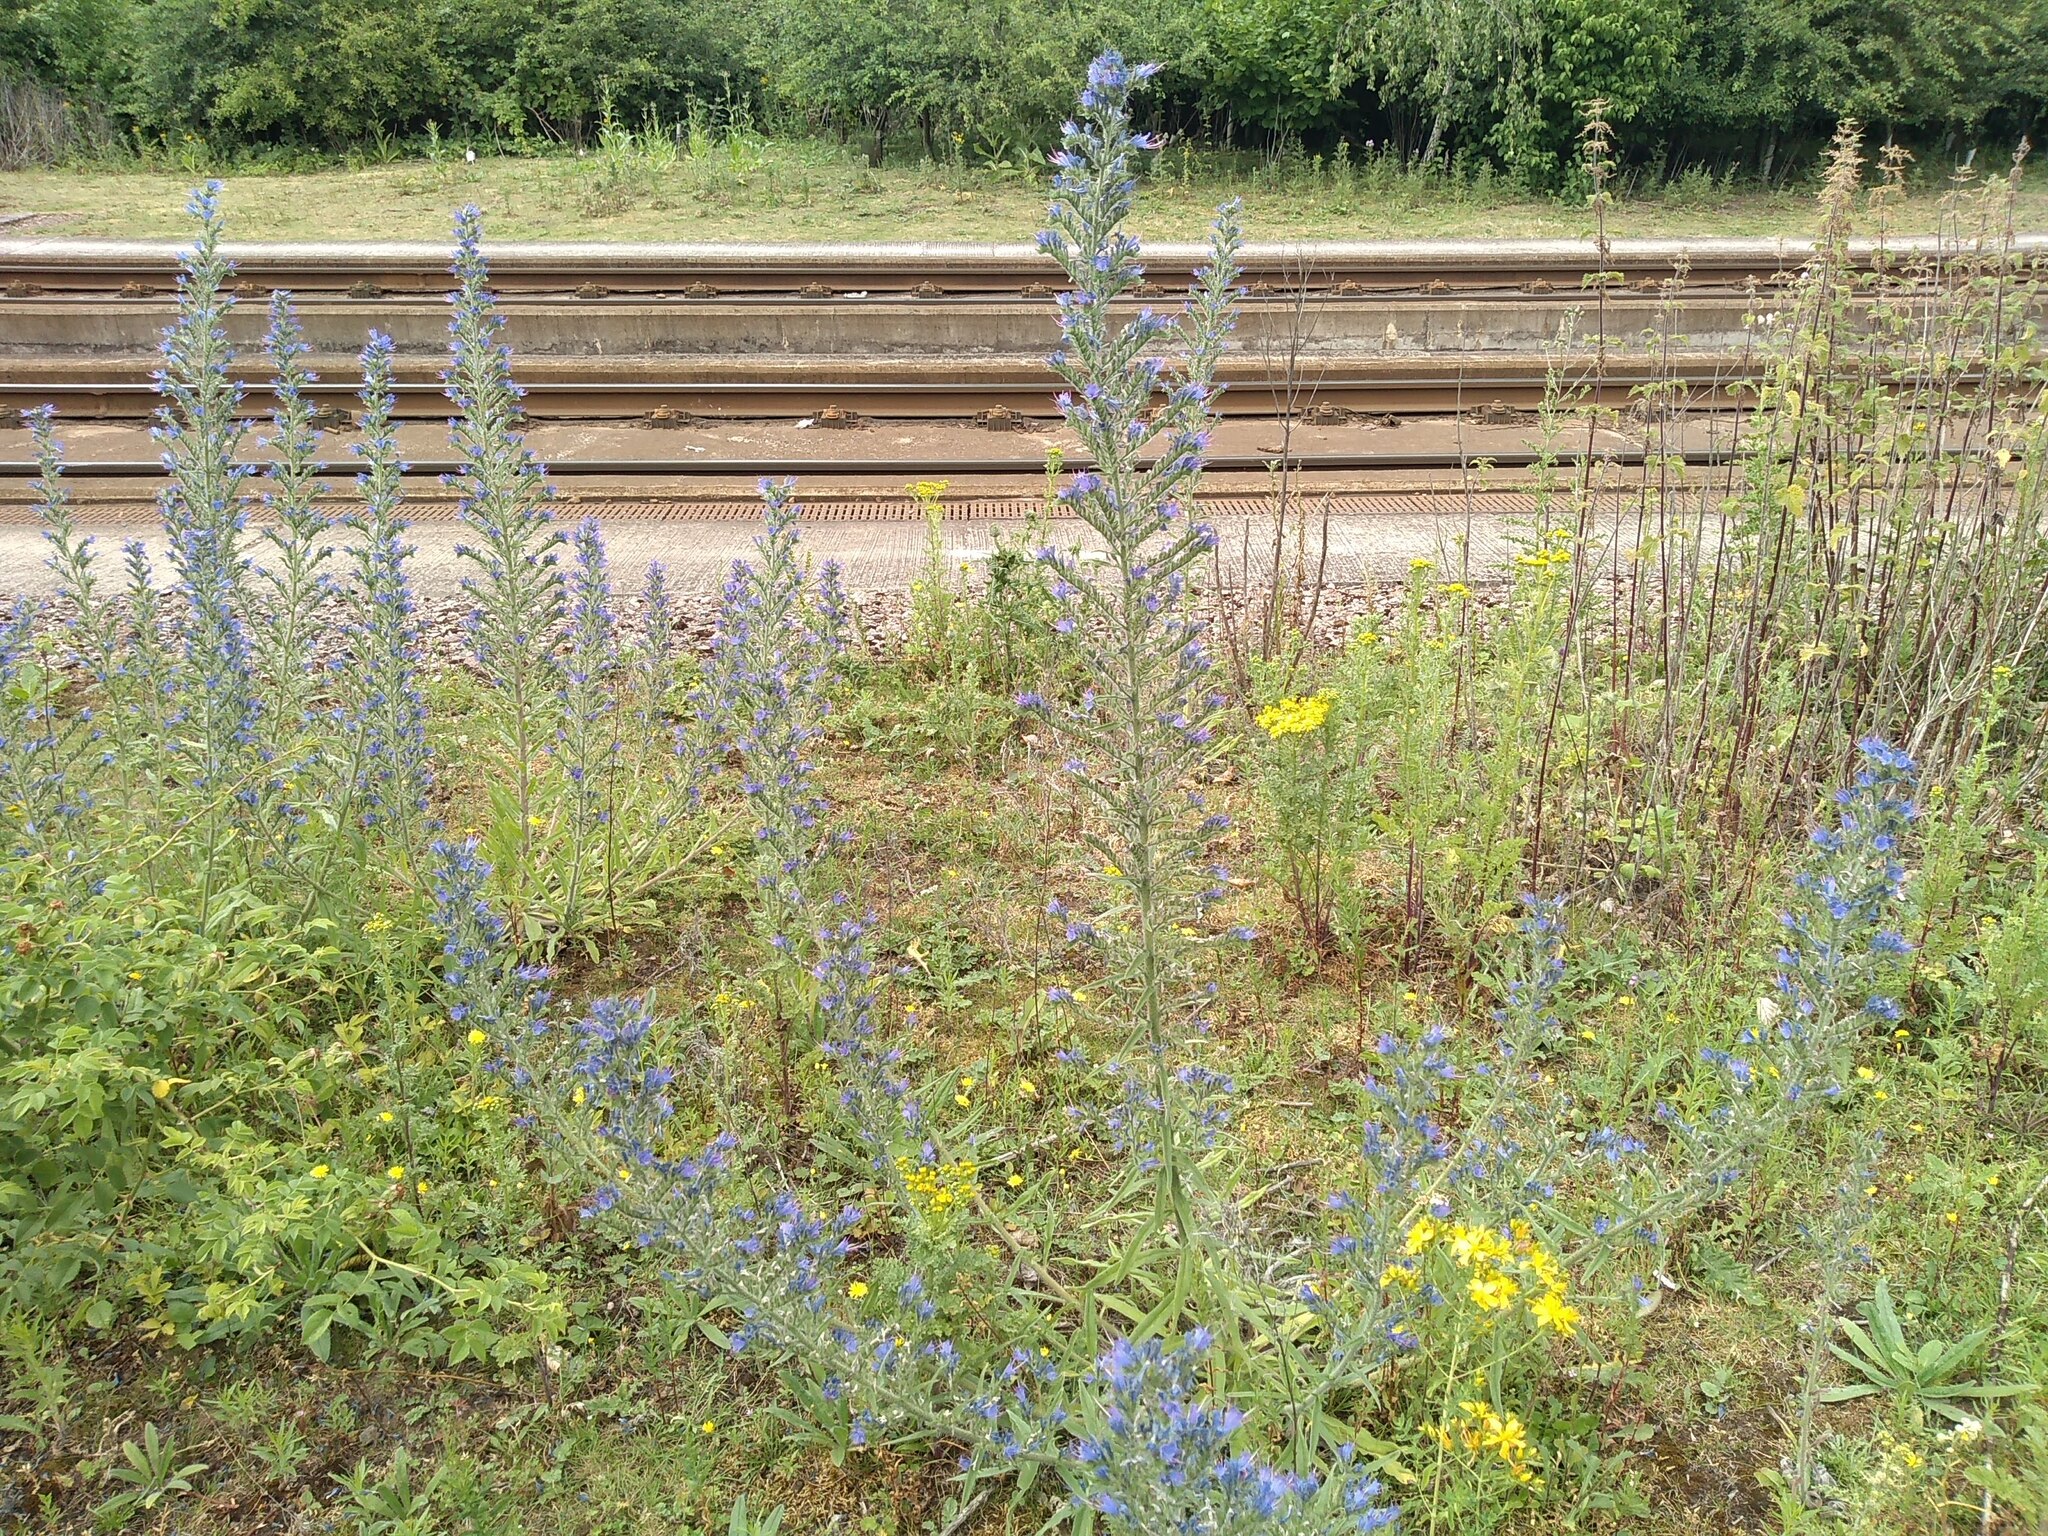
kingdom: Plantae
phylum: Tracheophyta
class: Magnoliopsida
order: Boraginales
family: Boraginaceae
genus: Echium
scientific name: Echium vulgare
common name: Common viper's bugloss
